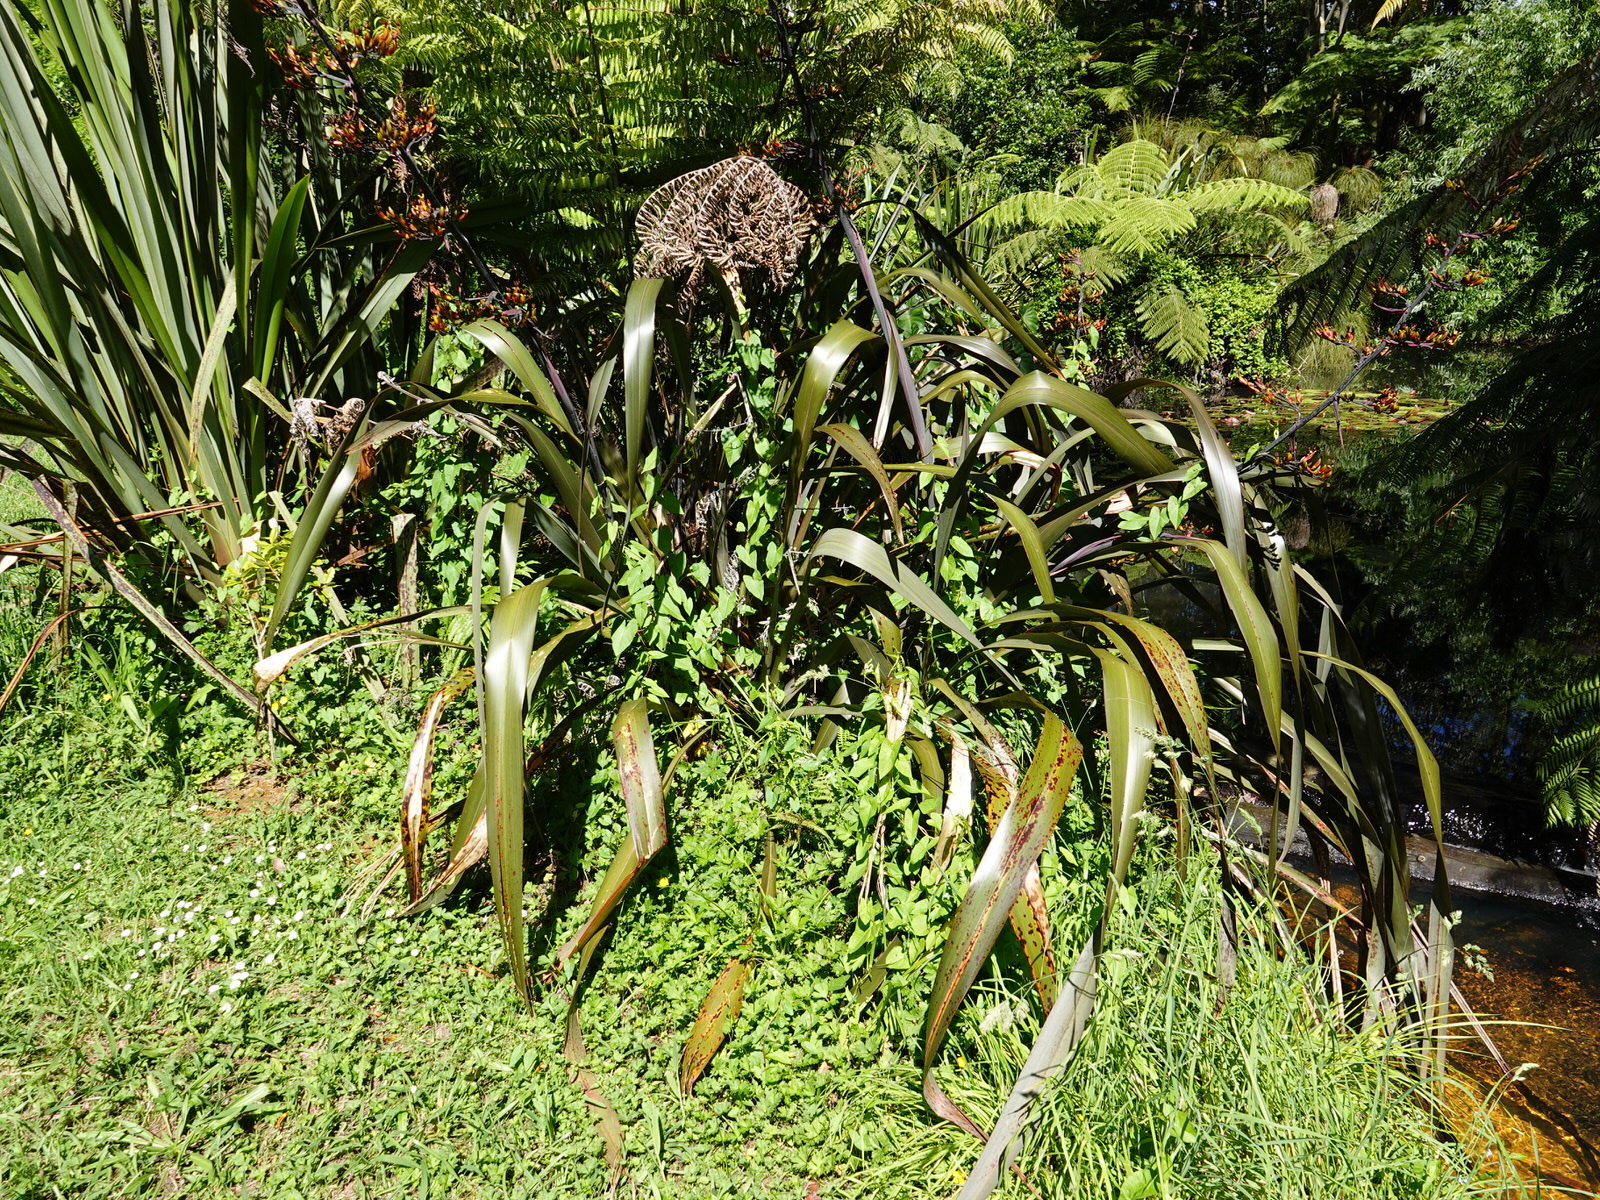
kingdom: Plantae
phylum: Tracheophyta
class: Liliopsida
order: Asparagales
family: Asphodelaceae
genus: Phormium
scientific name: Phormium colensoi
